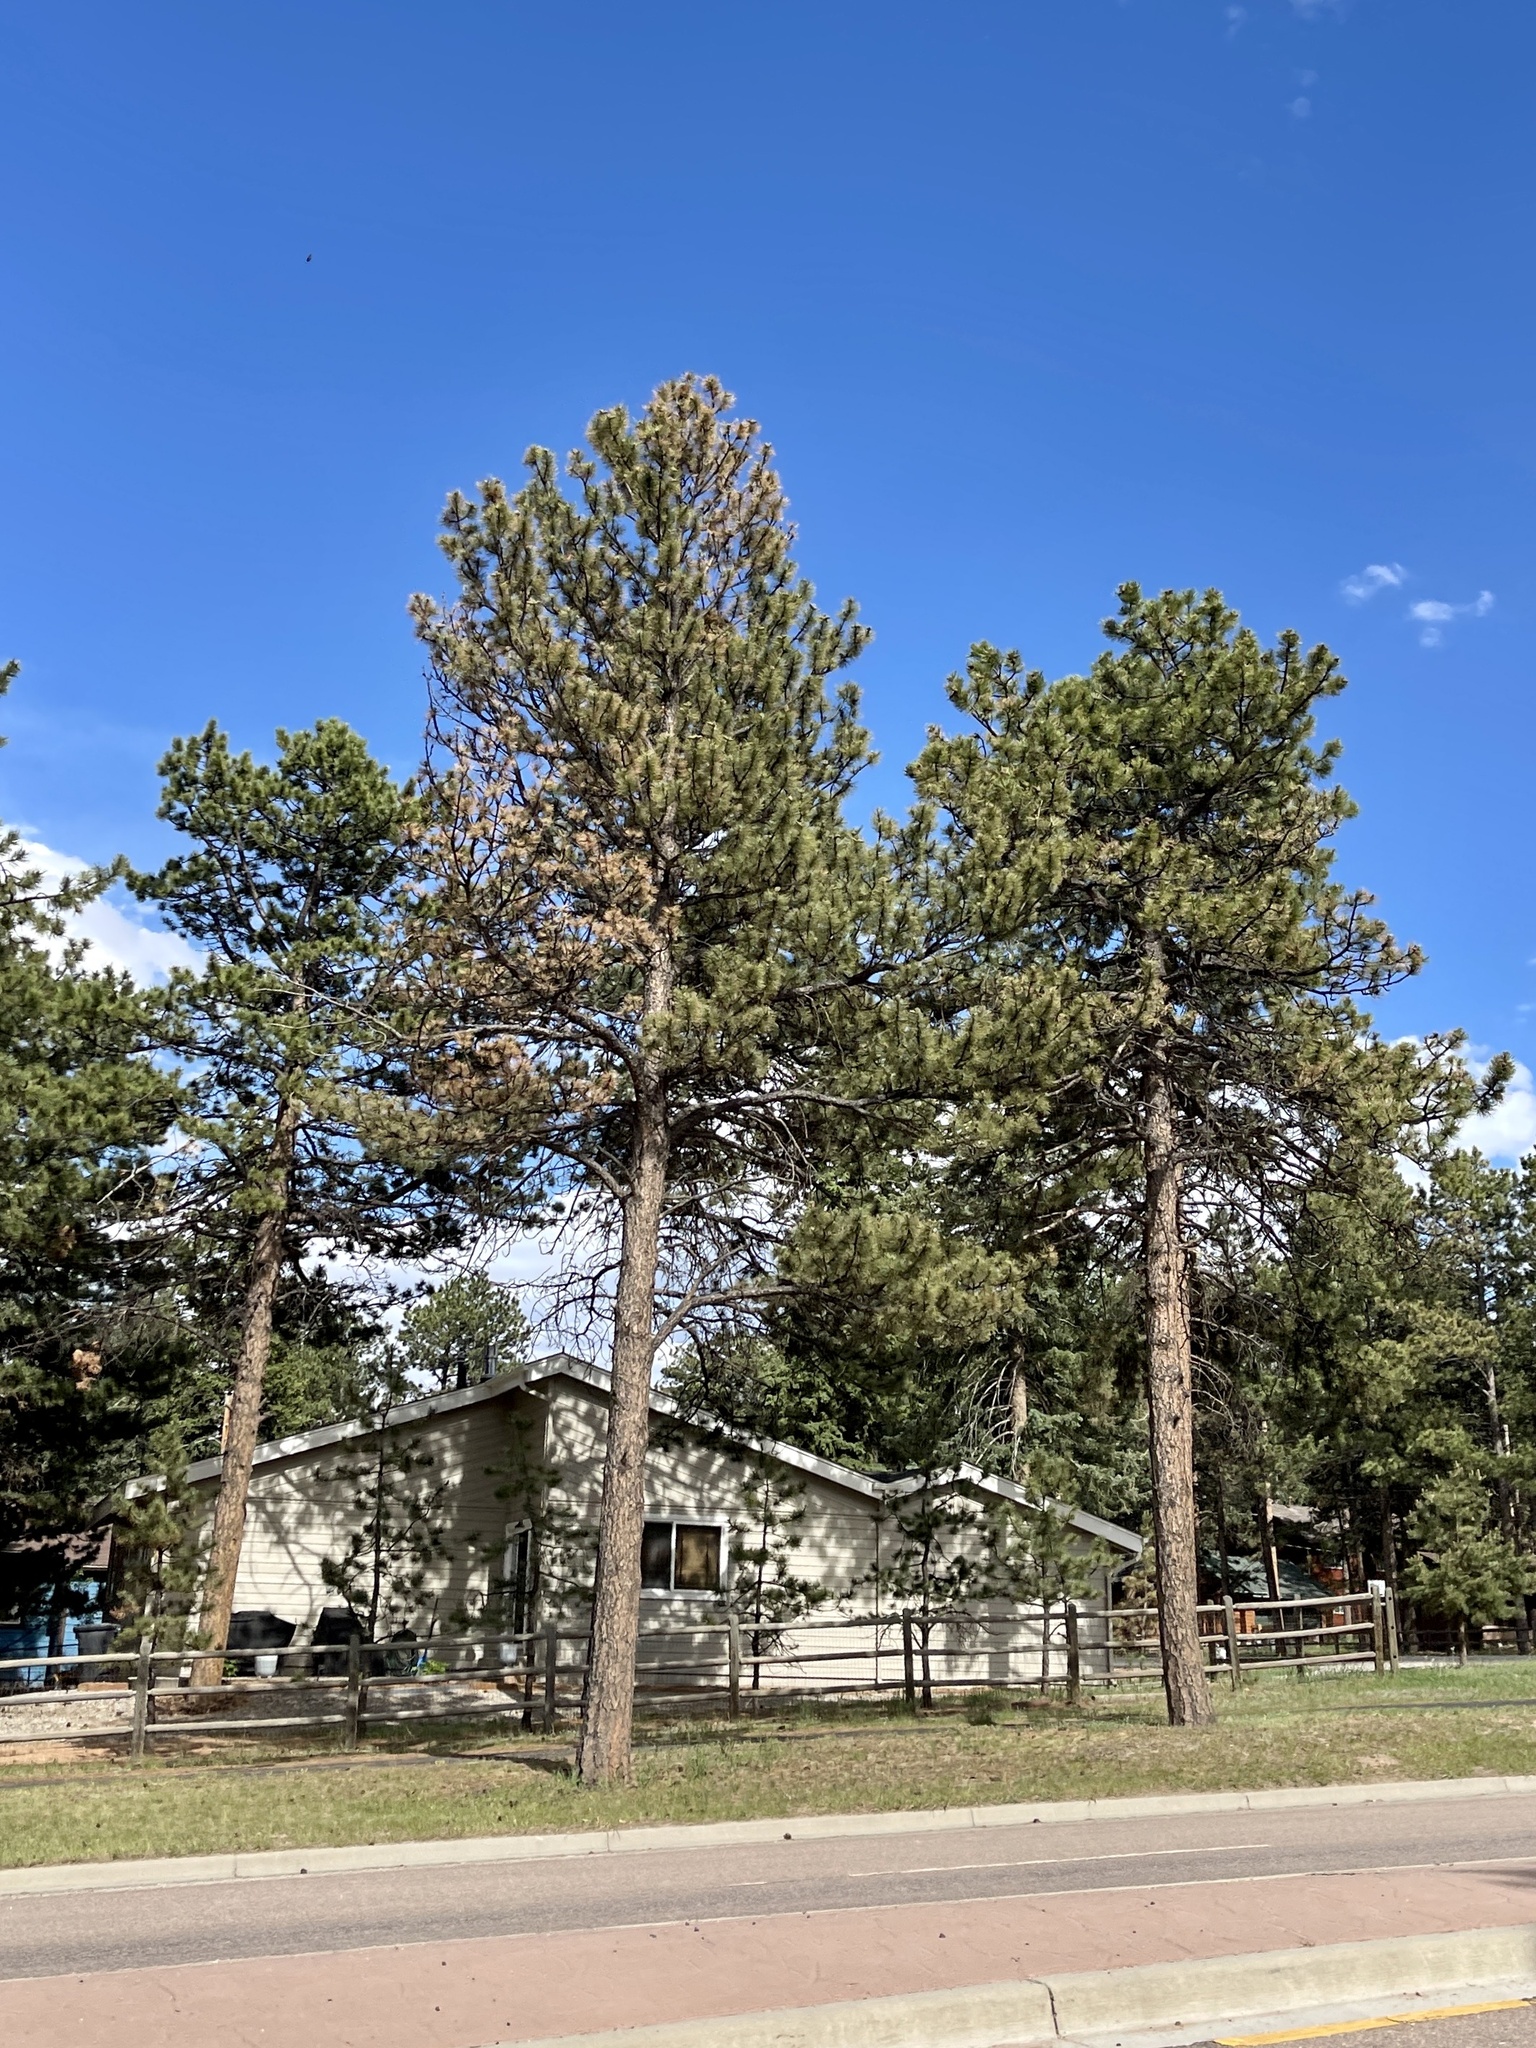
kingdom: Plantae
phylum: Tracheophyta
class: Pinopsida
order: Pinales
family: Pinaceae
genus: Pinus
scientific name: Pinus ponderosa
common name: Western yellow-pine
